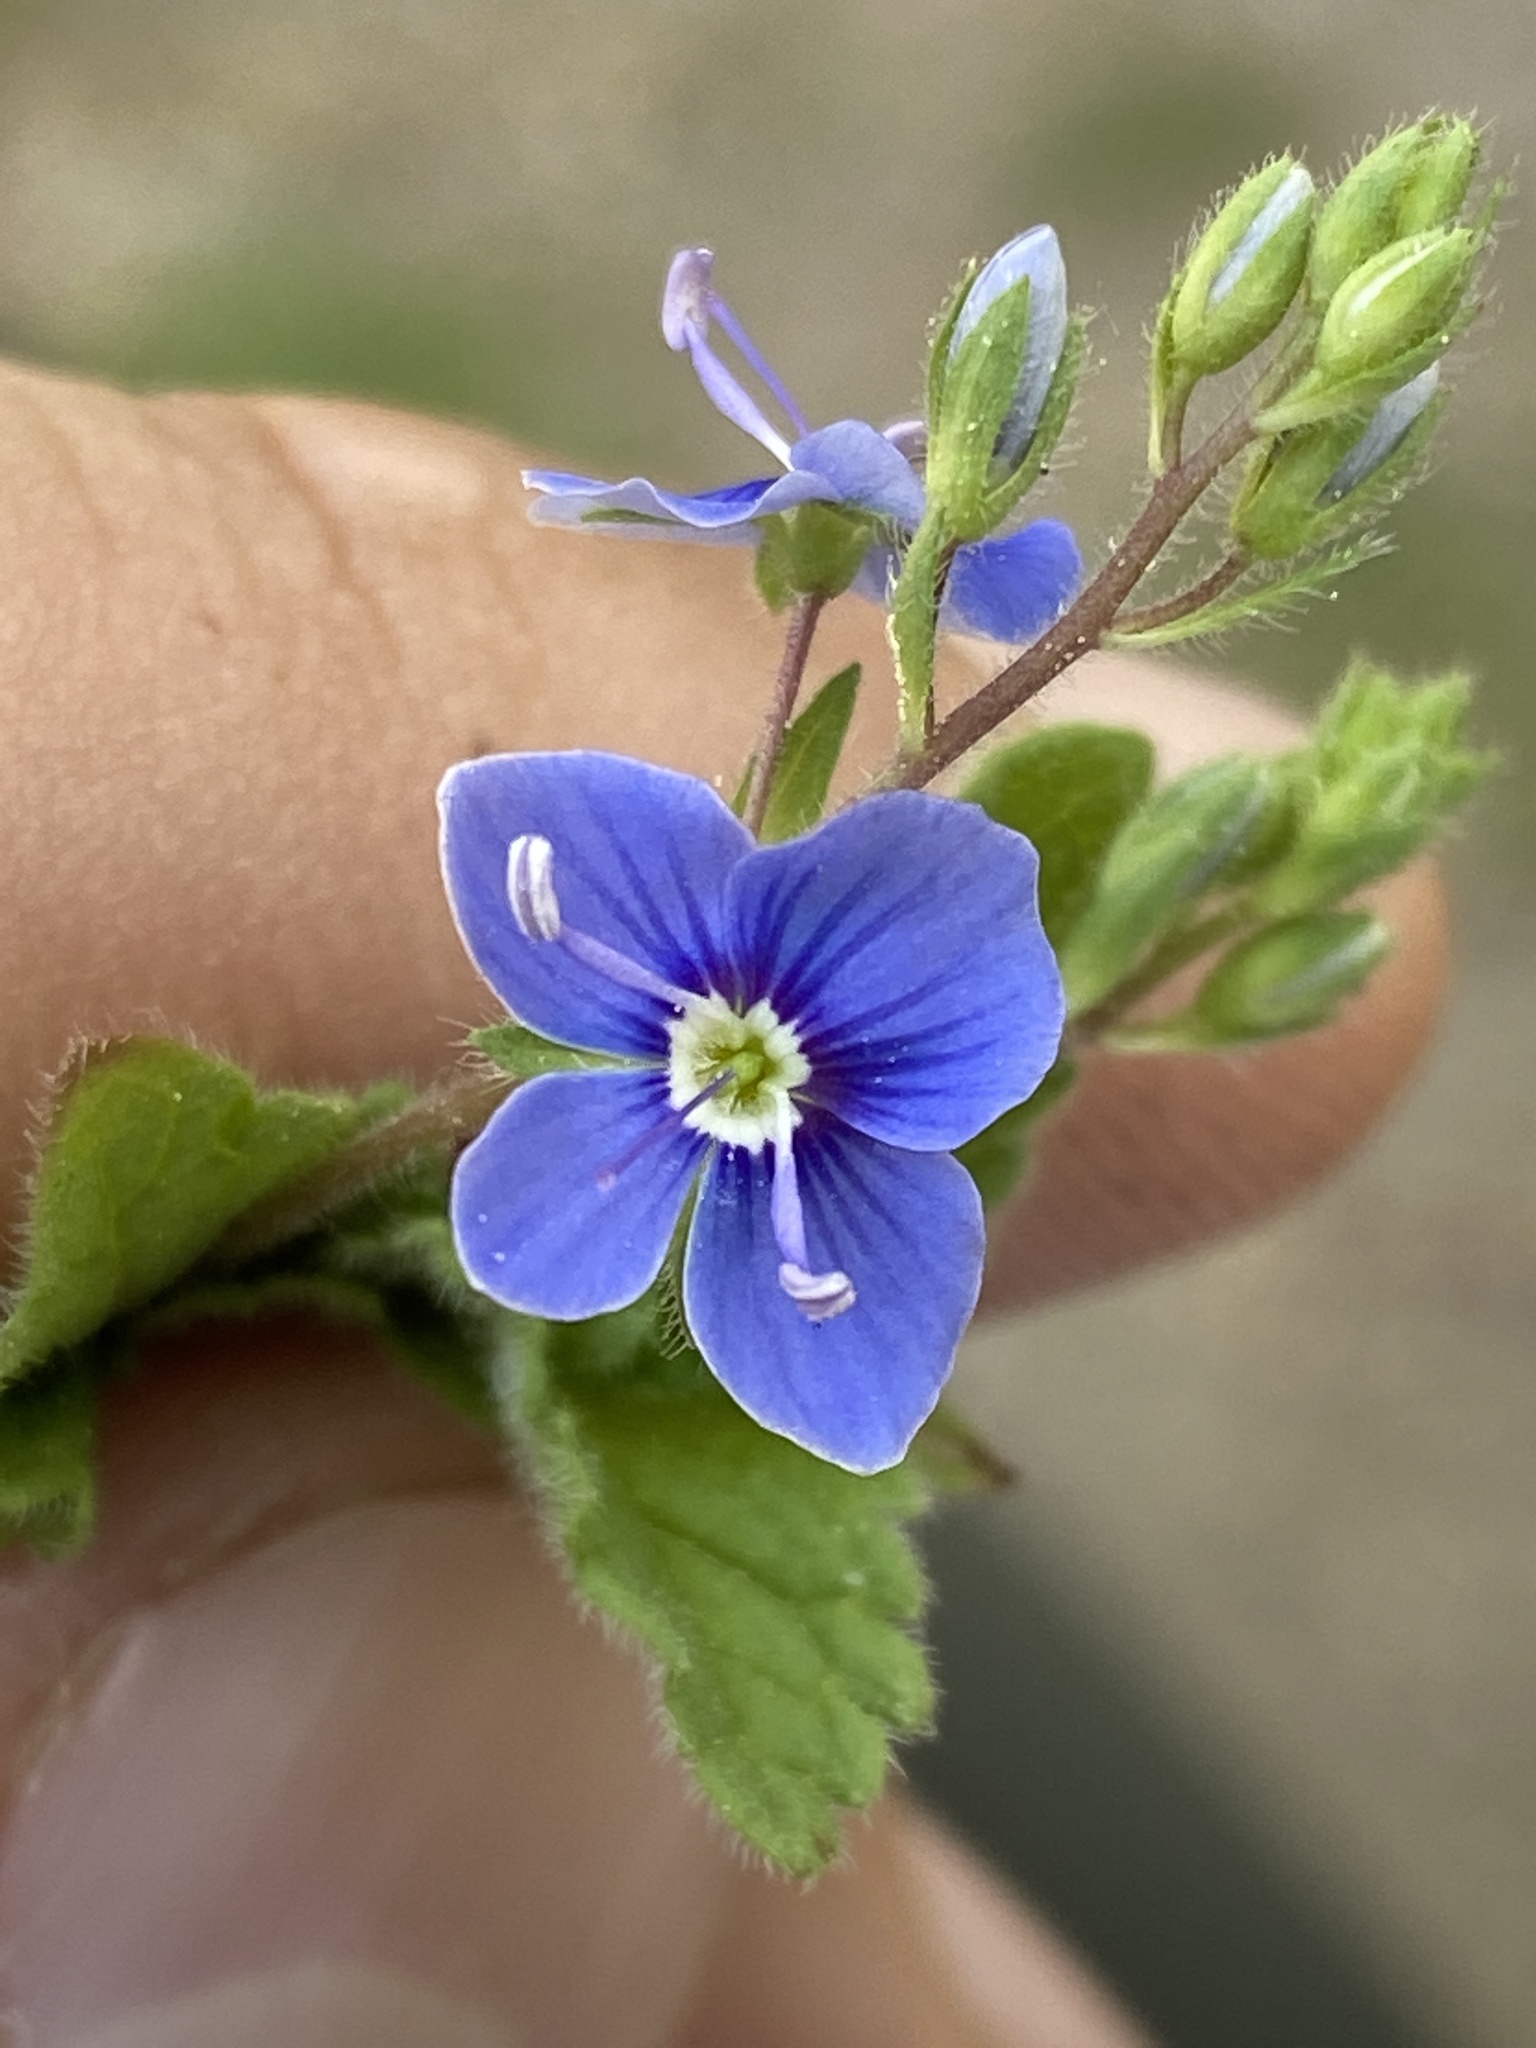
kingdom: Plantae
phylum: Tracheophyta
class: Magnoliopsida
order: Lamiales
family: Plantaginaceae
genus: Veronica
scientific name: Veronica chamaedrys
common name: Germander speedwell
